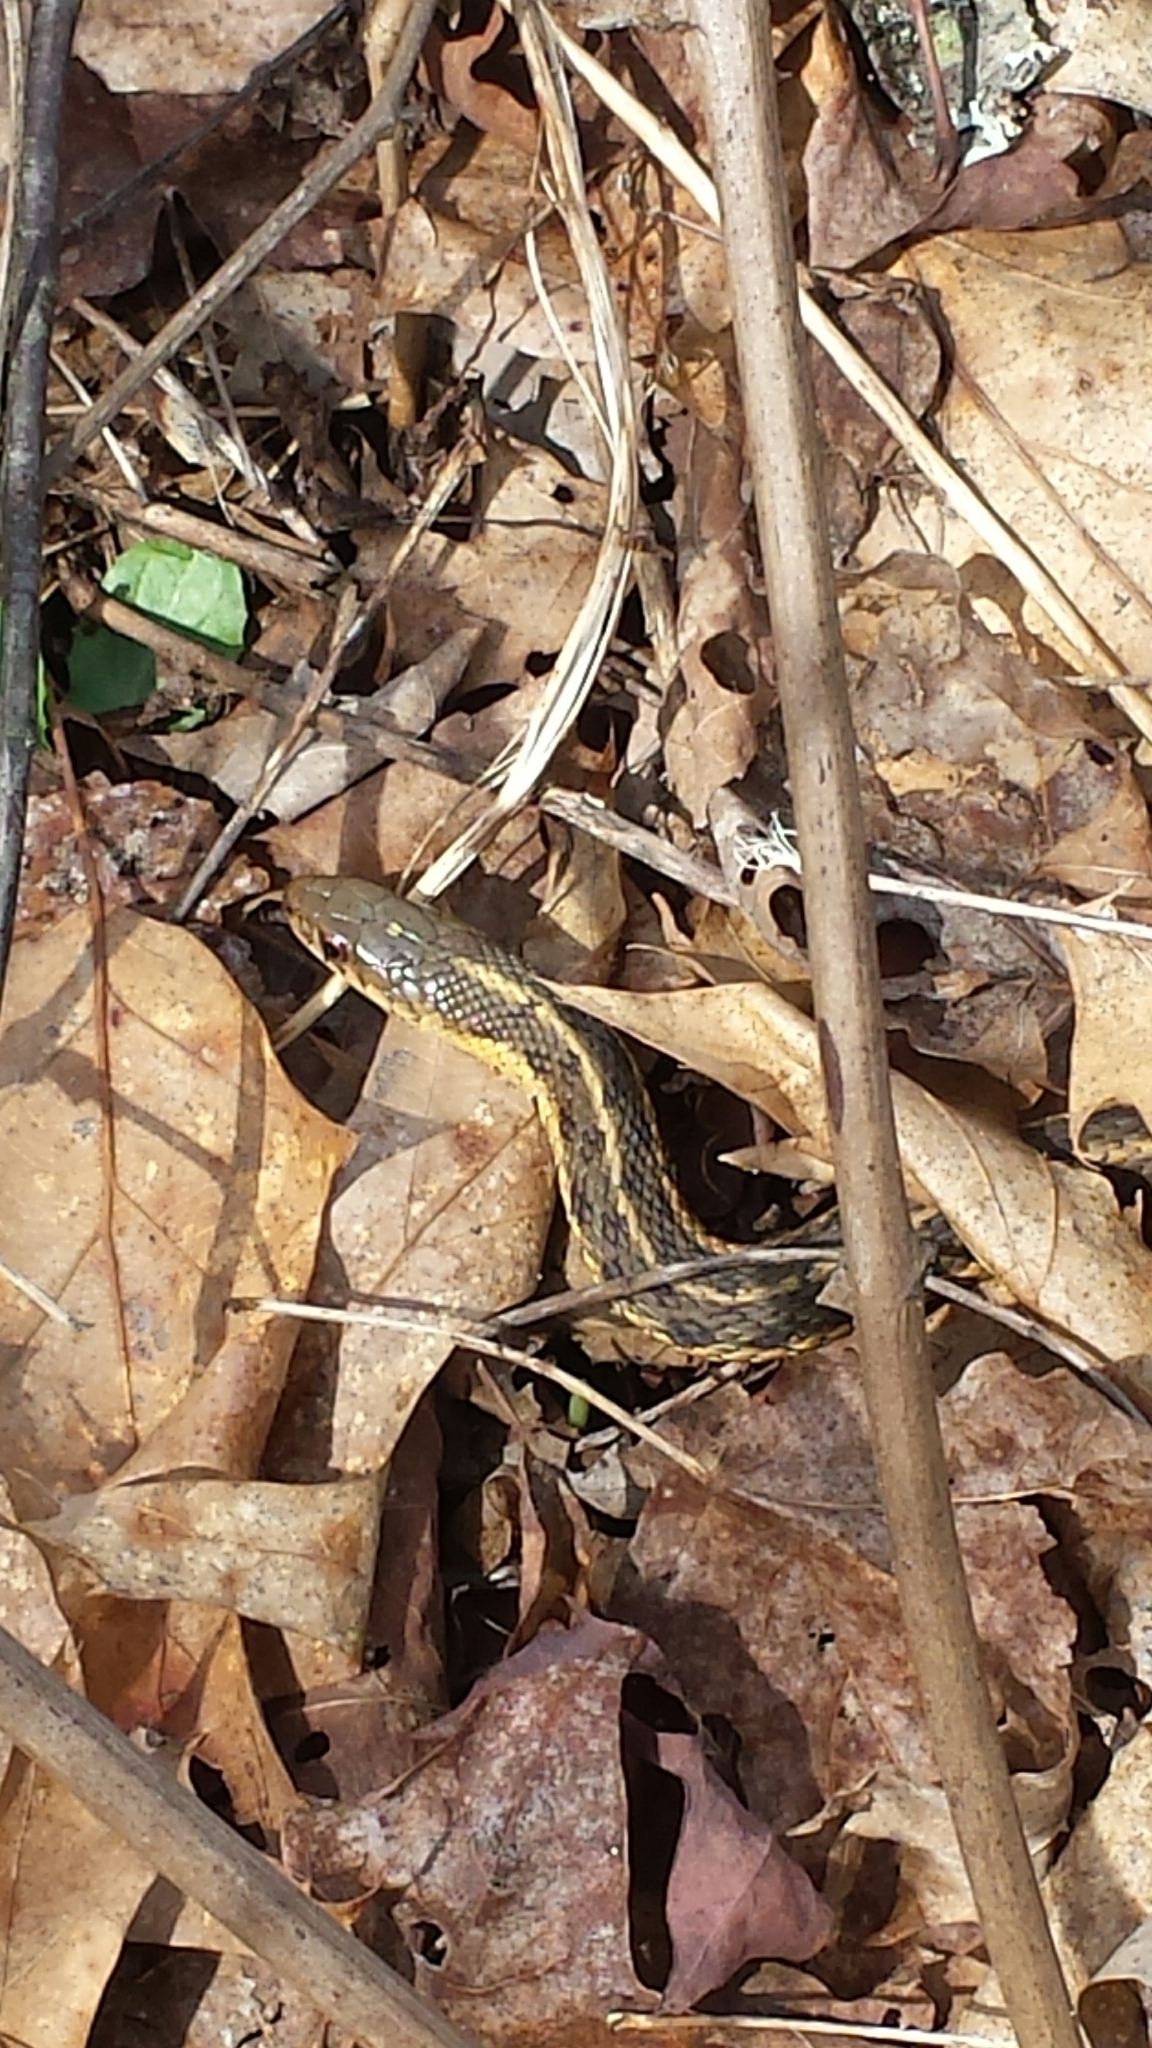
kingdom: Animalia
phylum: Chordata
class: Squamata
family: Colubridae
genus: Thamnophis
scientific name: Thamnophis sirtalis
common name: Common garter snake
